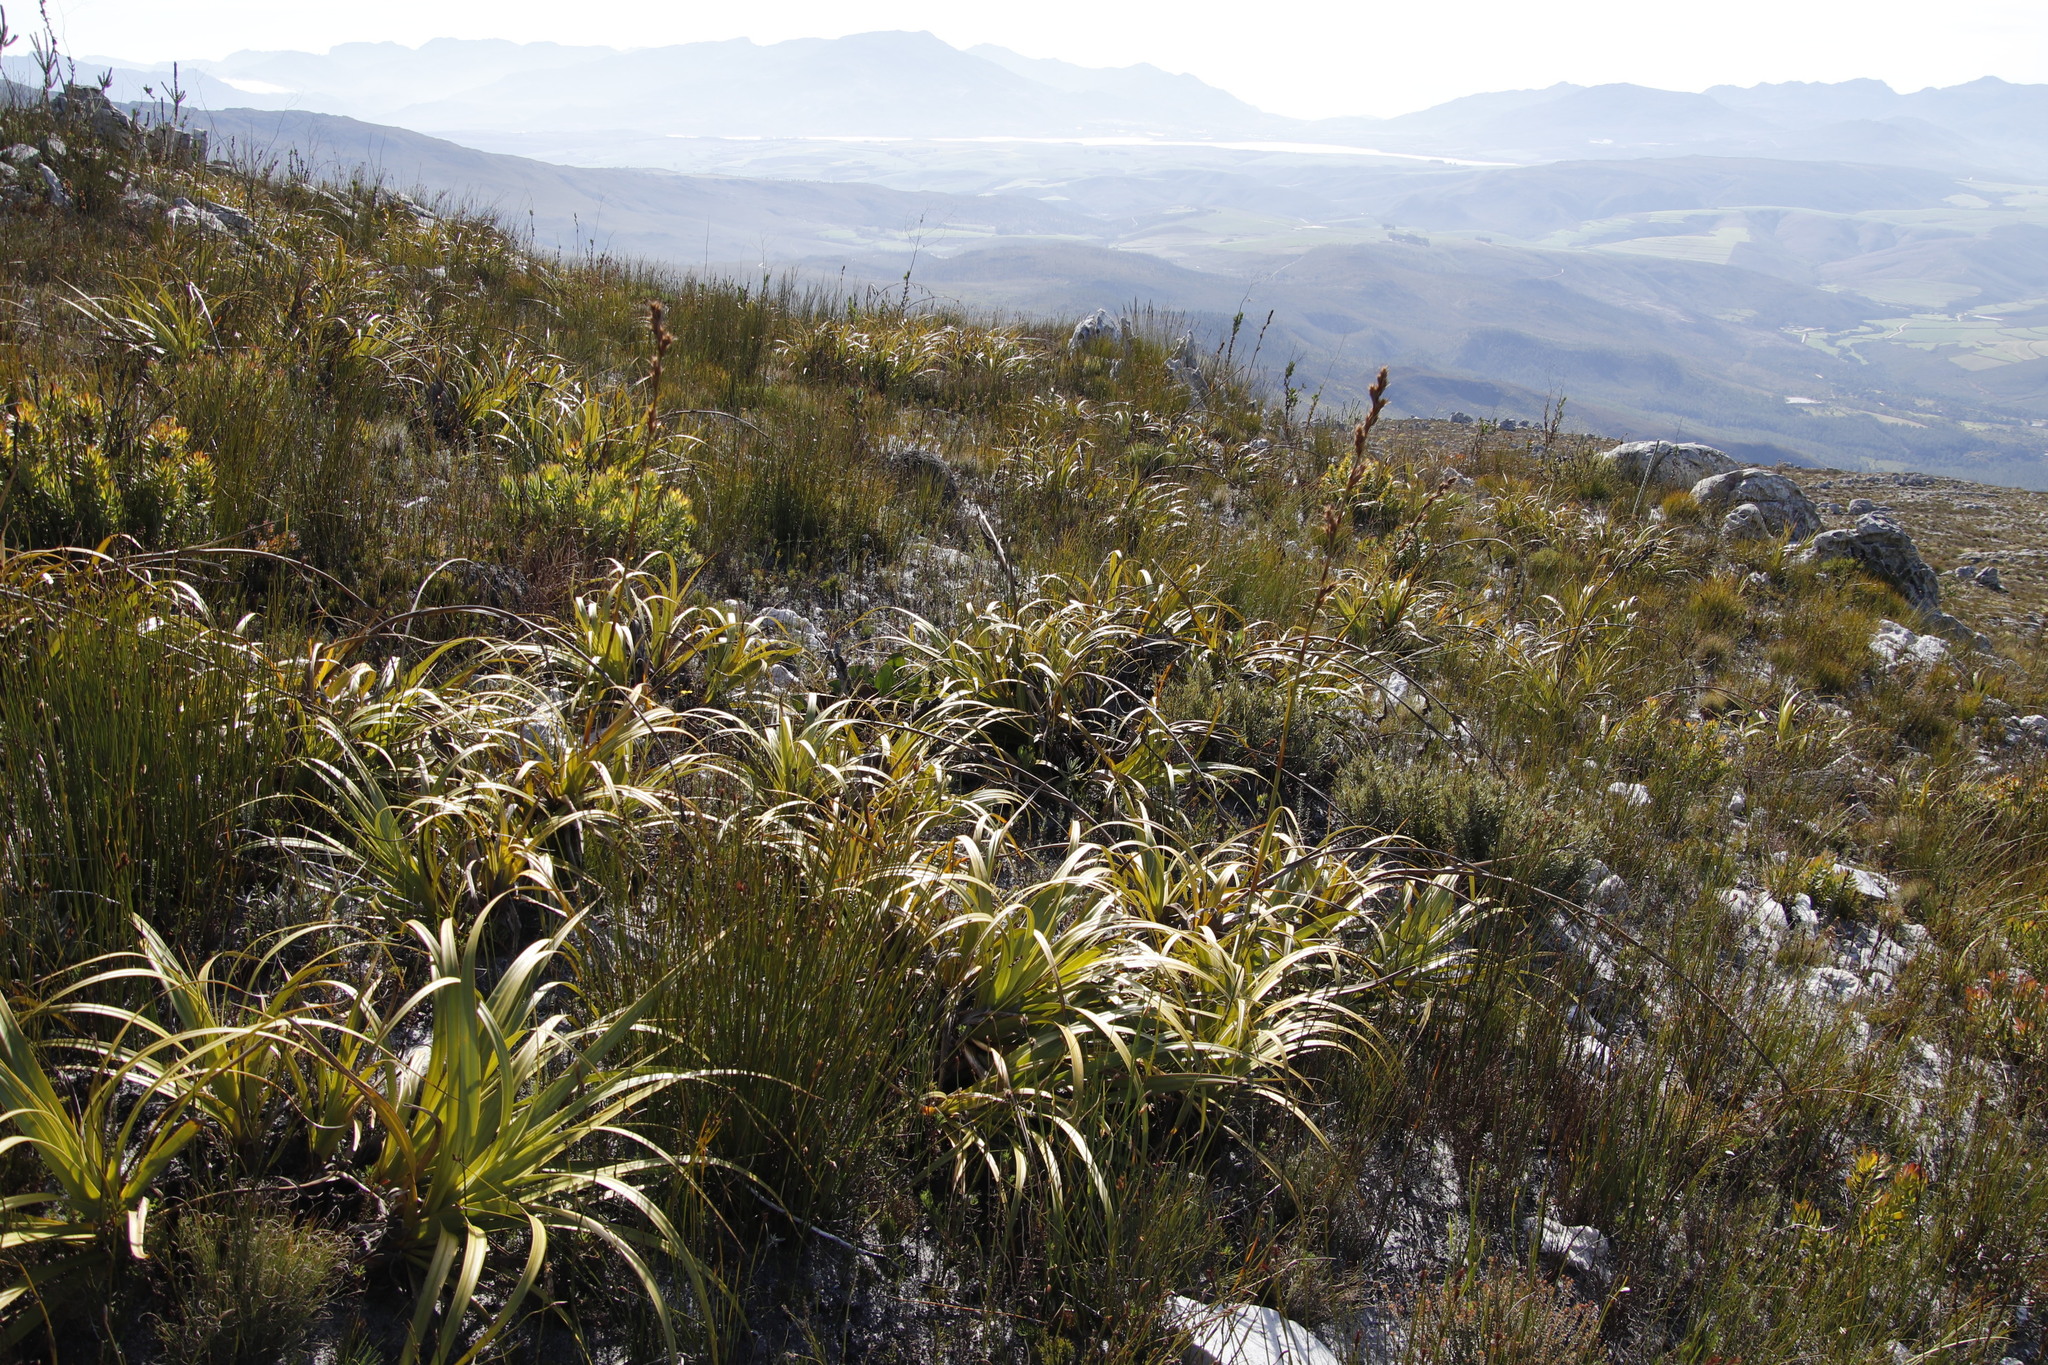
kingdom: Plantae
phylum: Tracheophyta
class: Liliopsida
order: Poales
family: Cyperaceae
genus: Tetraria
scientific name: Tetraria thermalis
